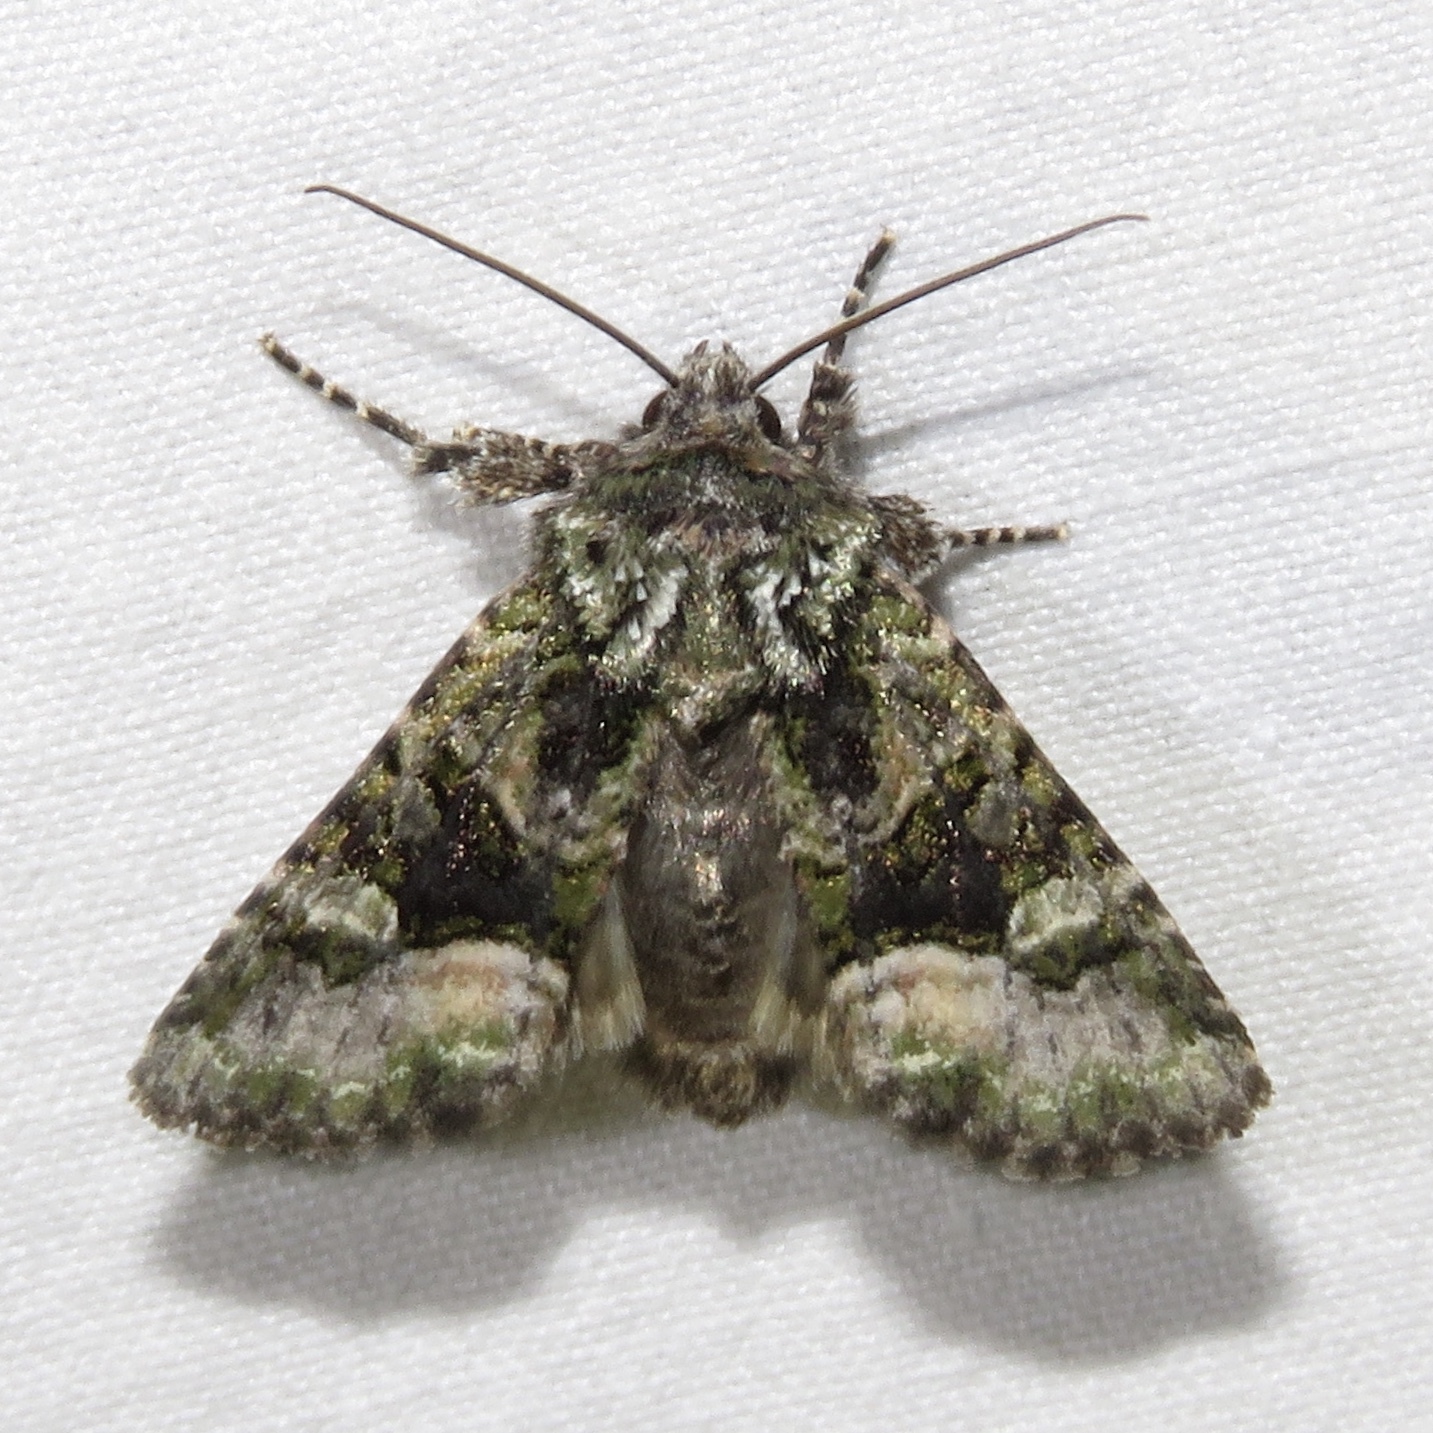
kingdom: Animalia
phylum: Arthropoda
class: Insecta
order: Lepidoptera
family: Noctuidae
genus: Lacinipolia
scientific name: Lacinipolia olivacea
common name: Olive arches moth
